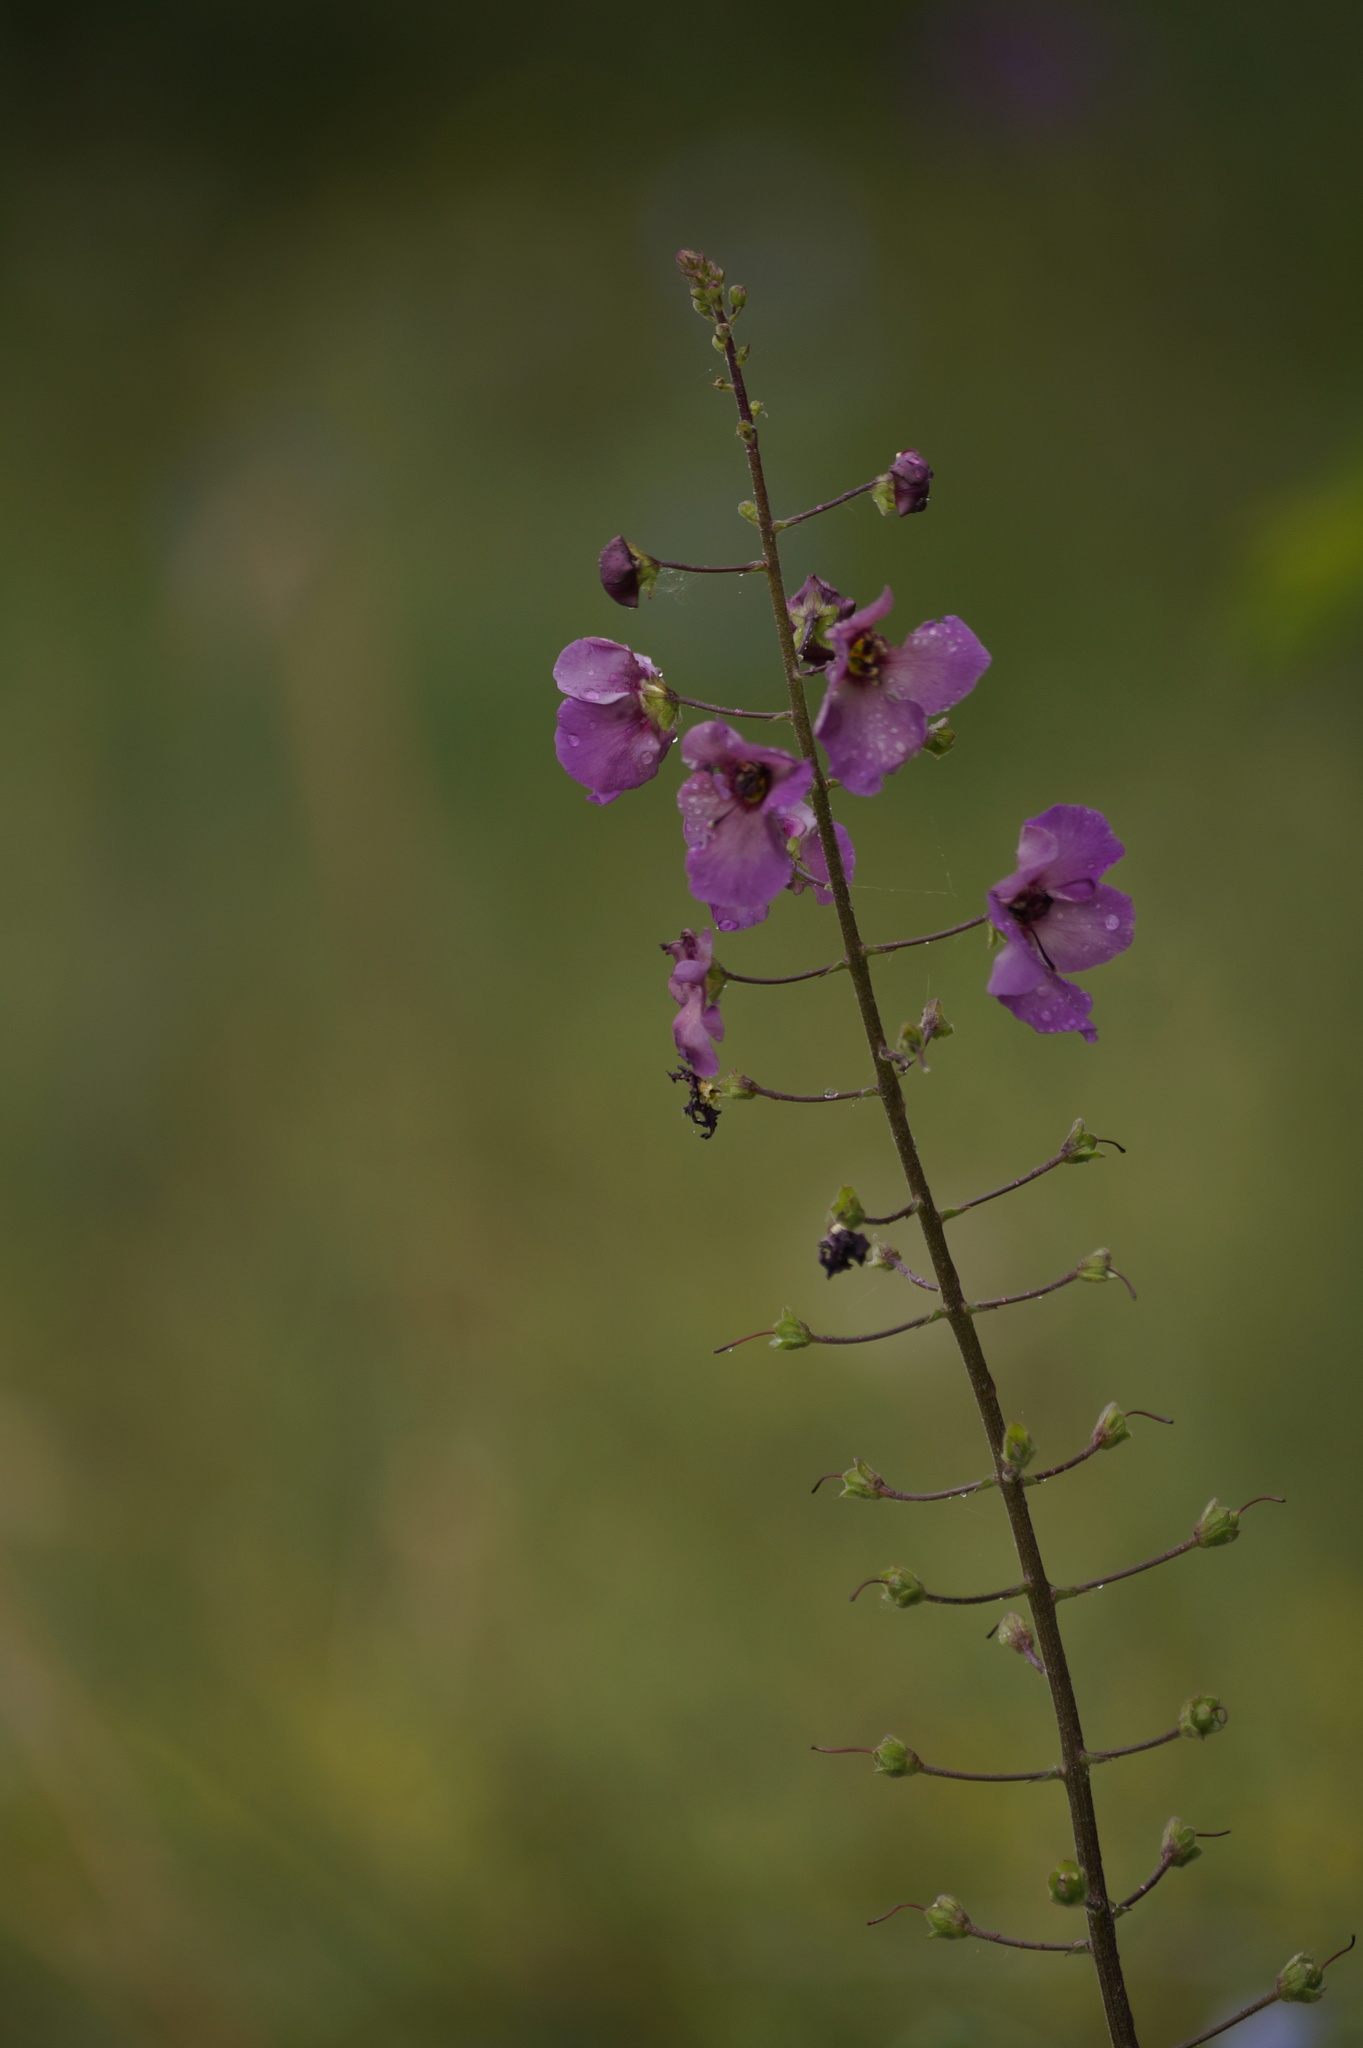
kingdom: Plantae
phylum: Tracheophyta
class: Magnoliopsida
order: Lamiales
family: Scrophulariaceae
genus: Verbascum
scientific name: Verbascum phoeniceum
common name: Purple mullein
